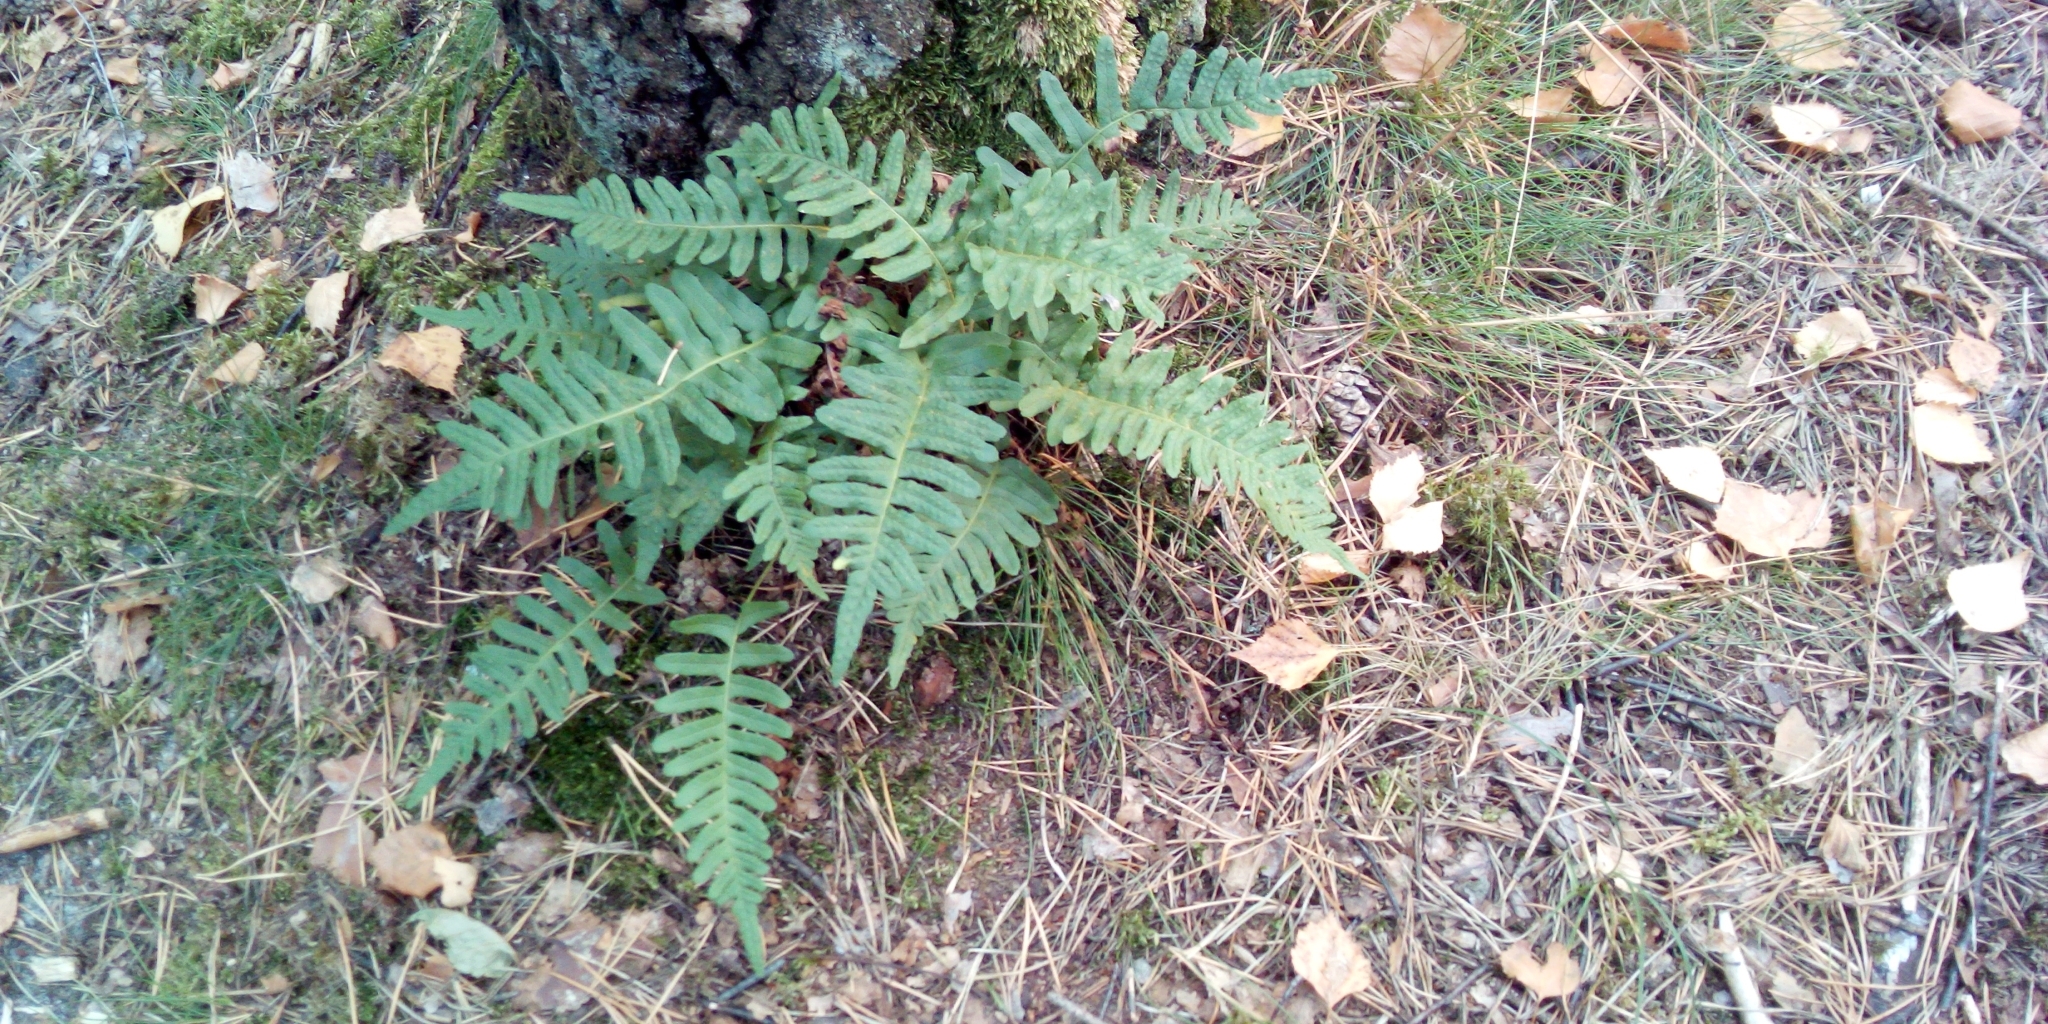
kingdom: Plantae
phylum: Tracheophyta
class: Polypodiopsida
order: Polypodiales
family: Polypodiaceae
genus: Polypodium
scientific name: Polypodium vulgare
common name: Common polypody
